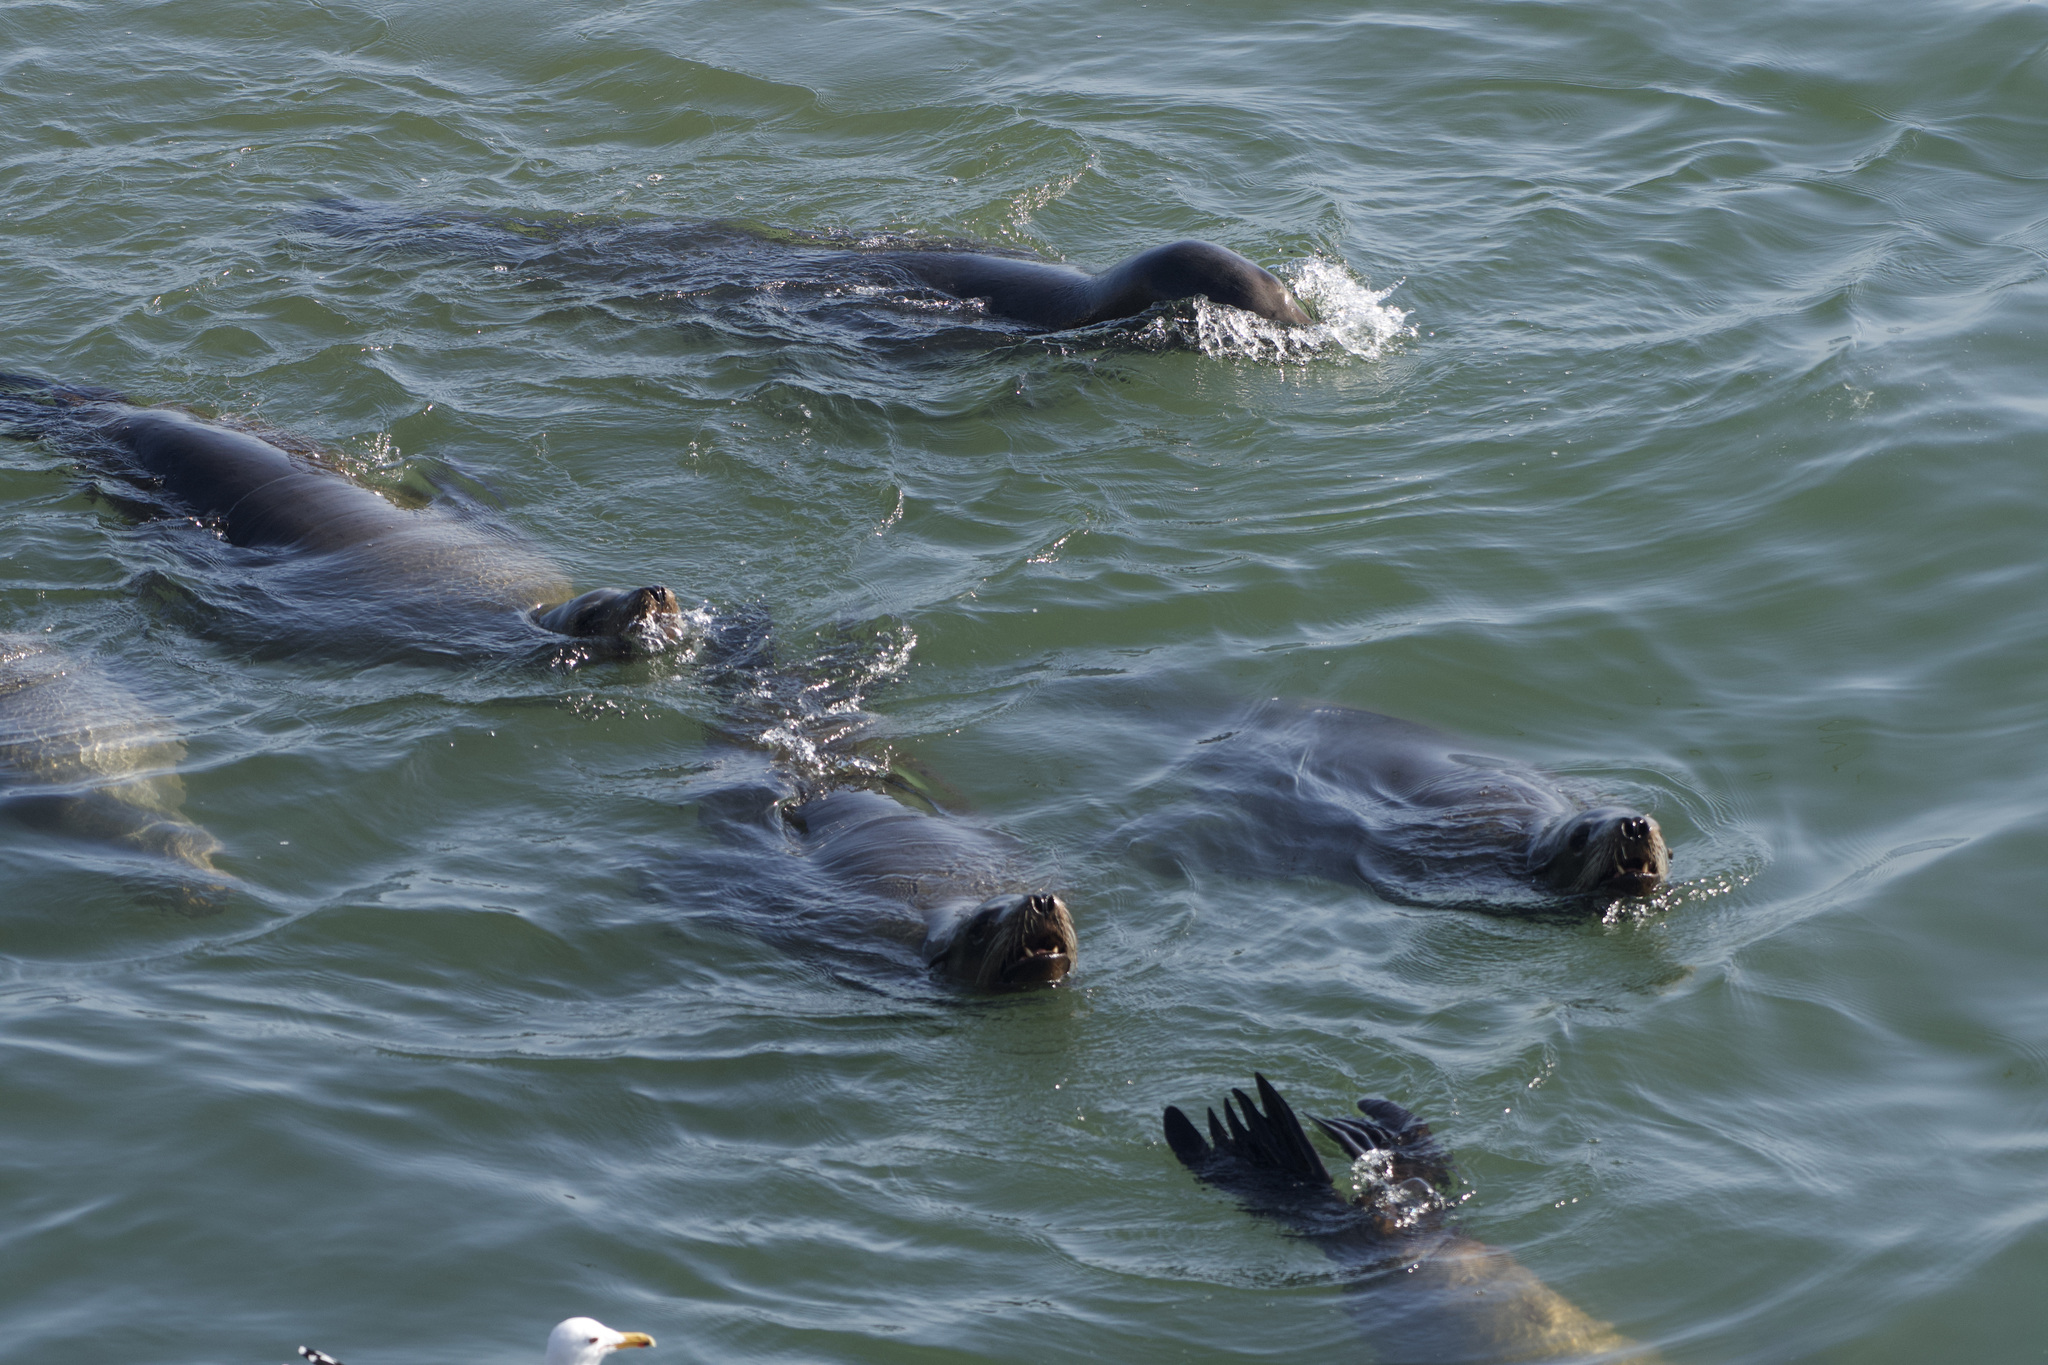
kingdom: Animalia
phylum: Chordata
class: Mammalia
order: Carnivora
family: Otariidae
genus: Zalophus
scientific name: Zalophus californianus
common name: California sea lion
